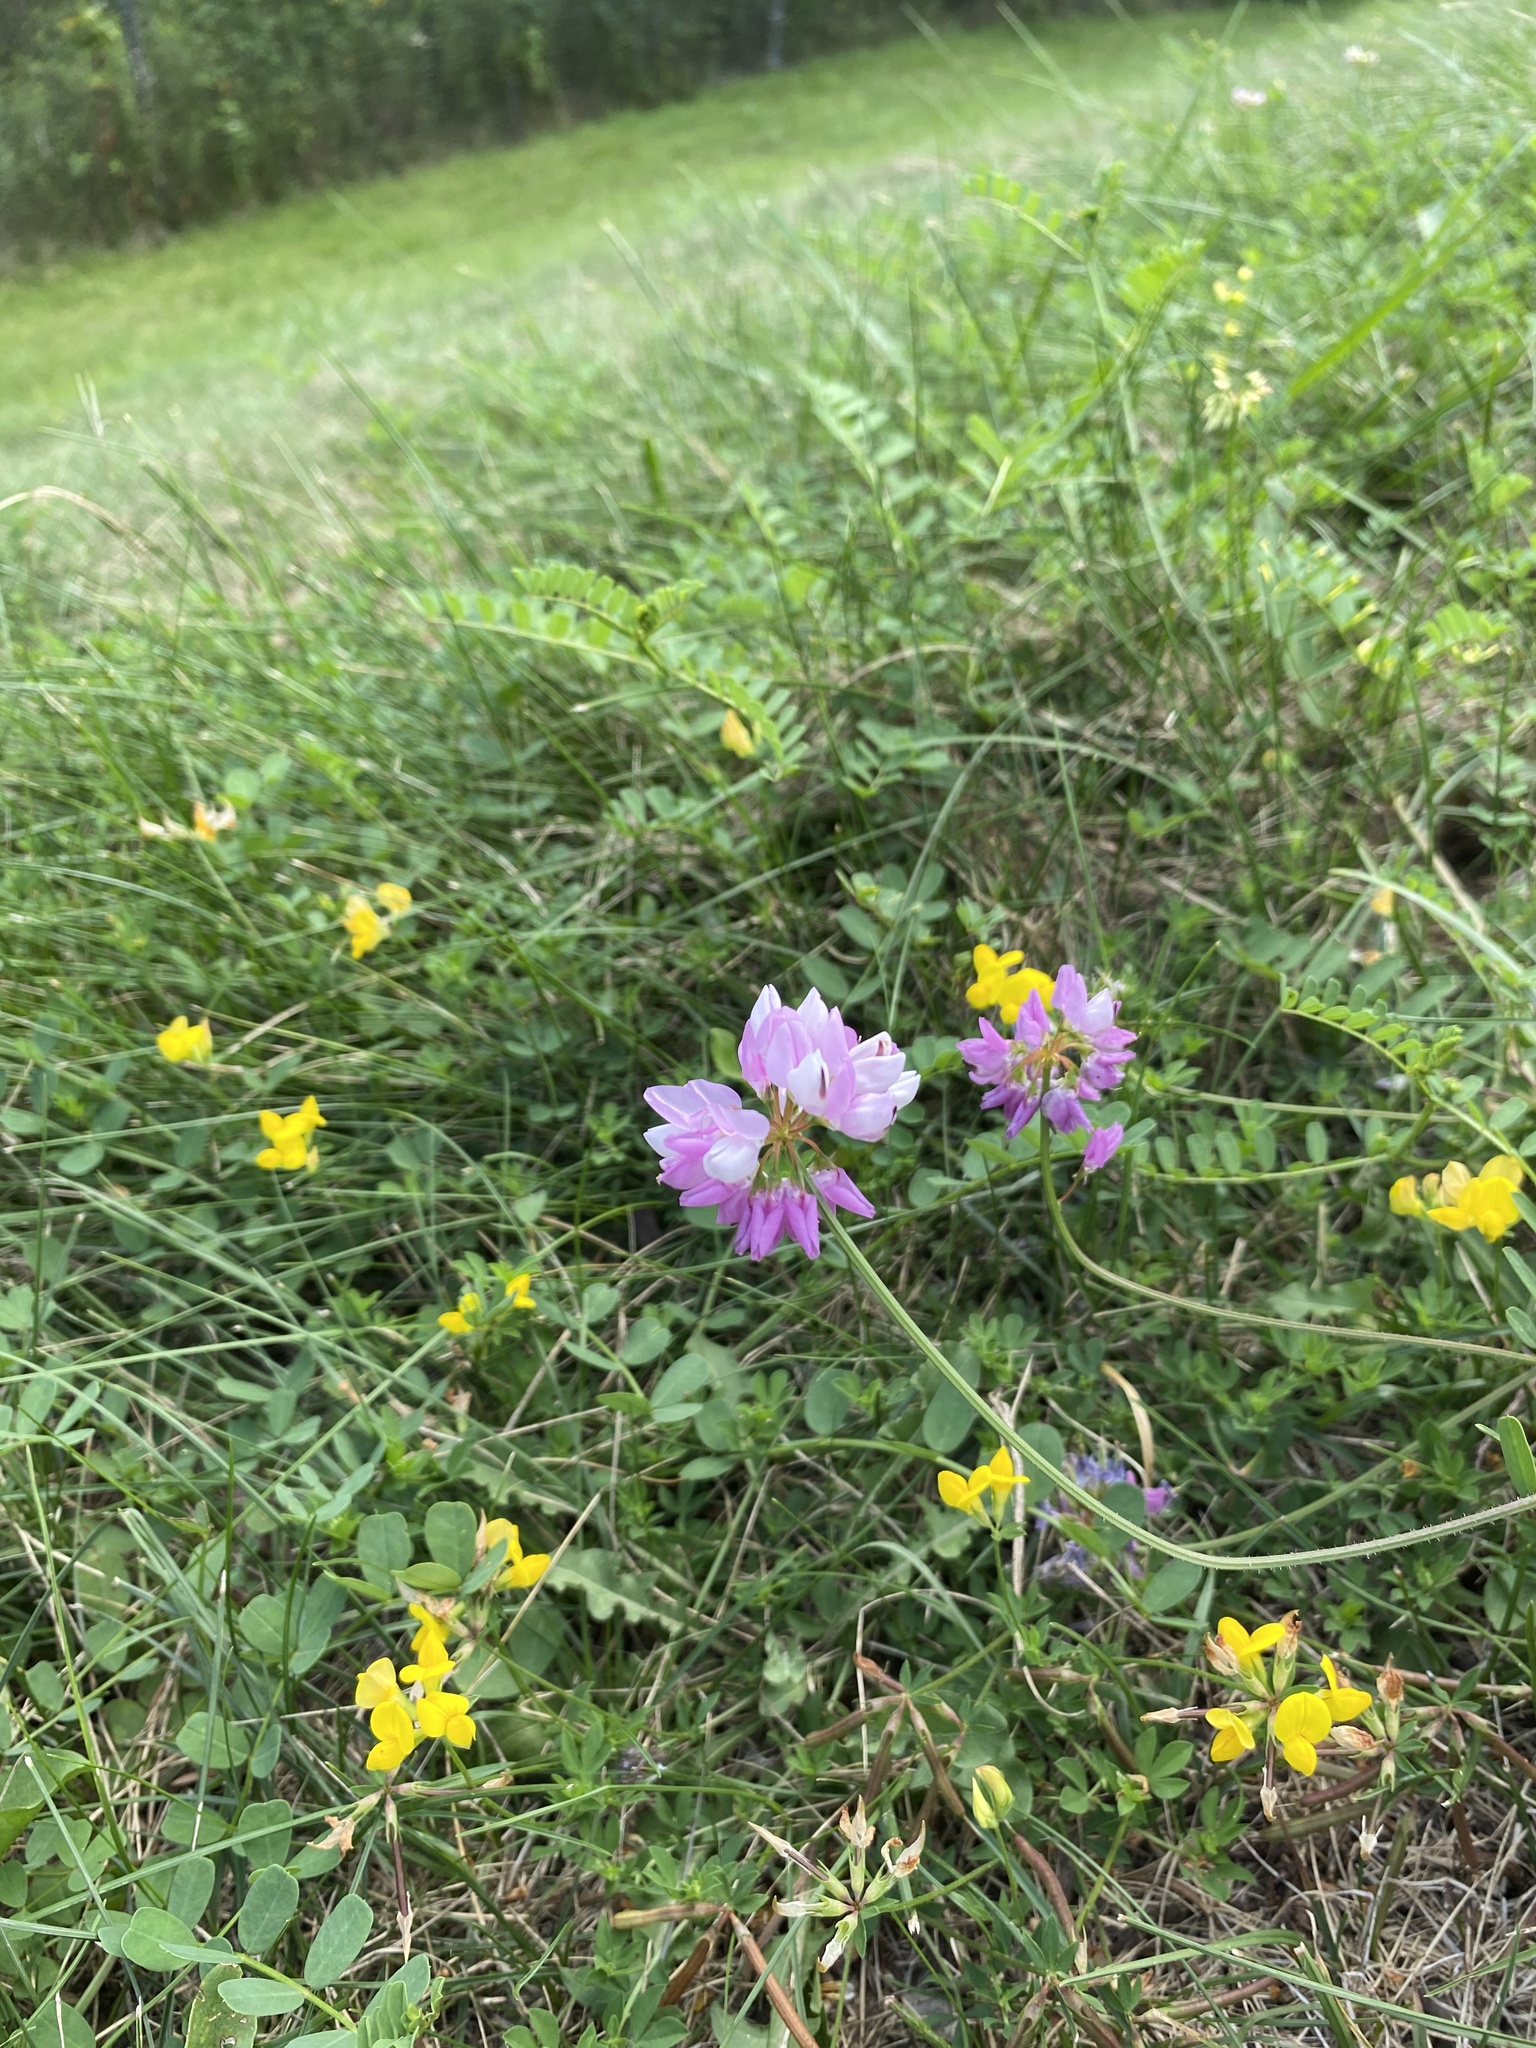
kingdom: Plantae
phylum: Tracheophyta
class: Magnoliopsida
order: Fabales
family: Fabaceae
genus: Coronilla
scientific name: Coronilla varia
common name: Crownvetch
